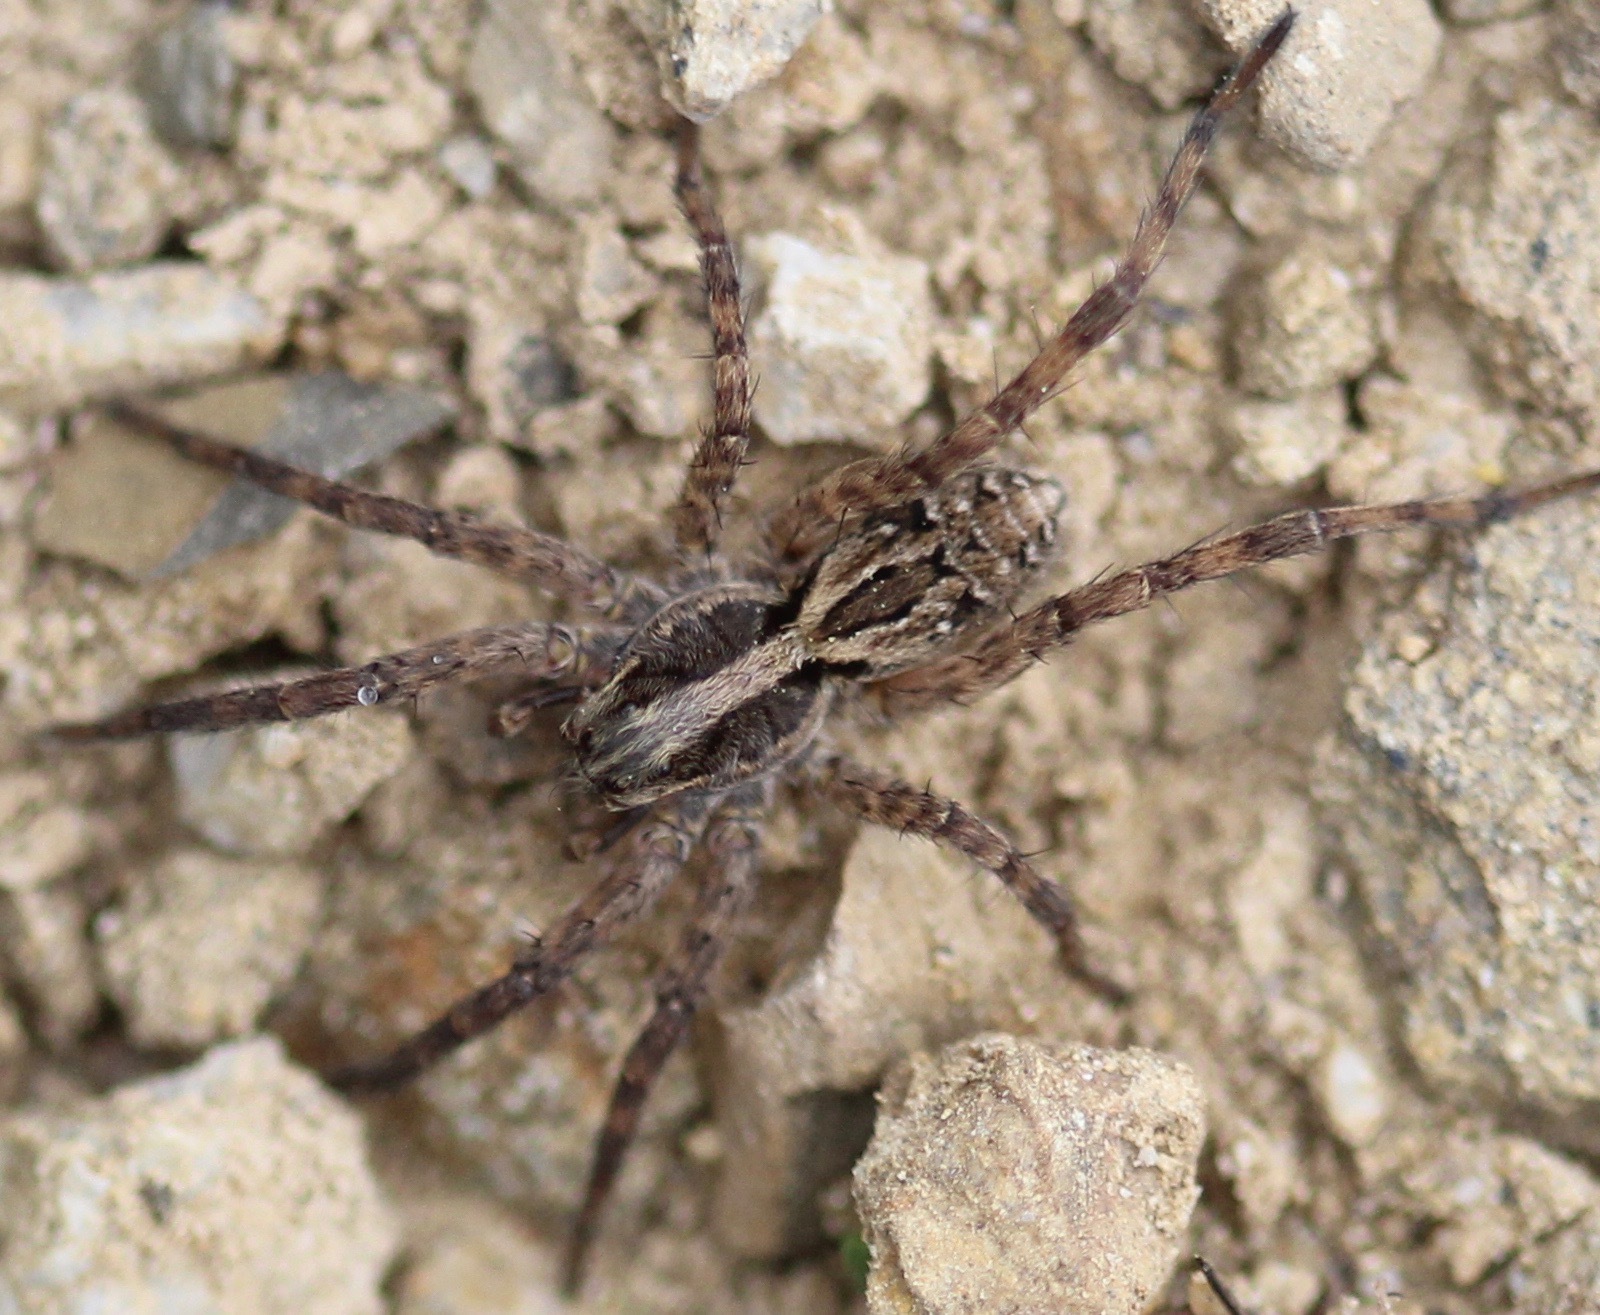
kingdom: Animalia
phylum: Arthropoda
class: Arachnida
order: Araneae
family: Lycosidae
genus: Schizocosa
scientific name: Schizocosa mccooki
